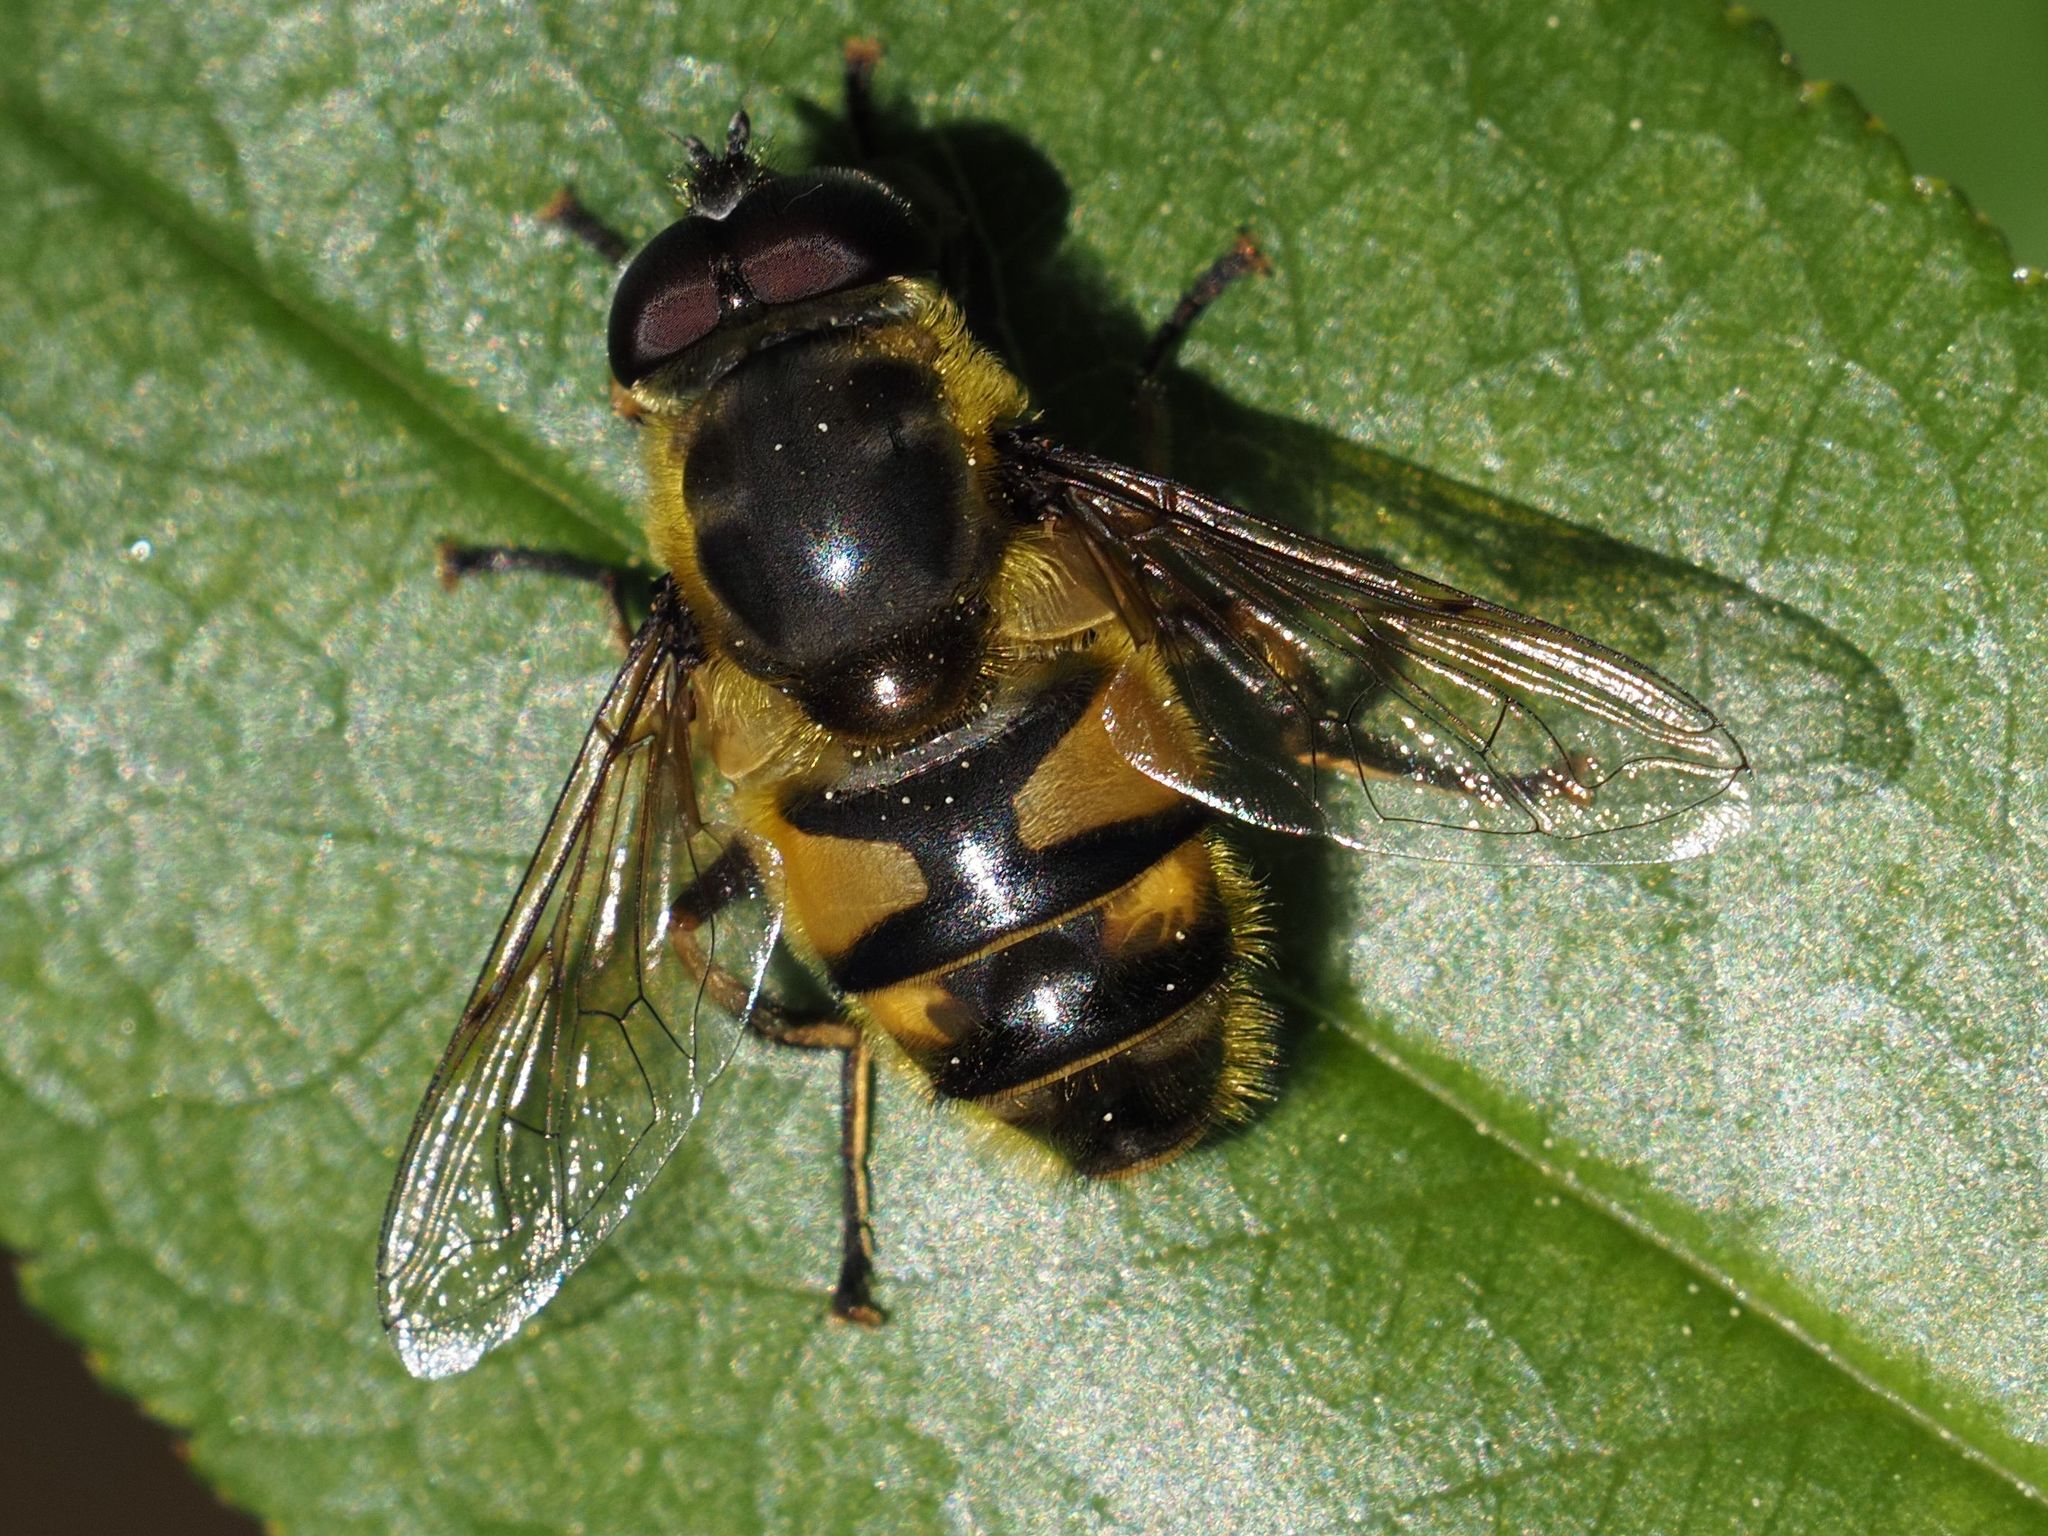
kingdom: Animalia
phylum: Arthropoda
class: Insecta
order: Diptera
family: Syrphidae
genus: Myathropa
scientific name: Myathropa florea
